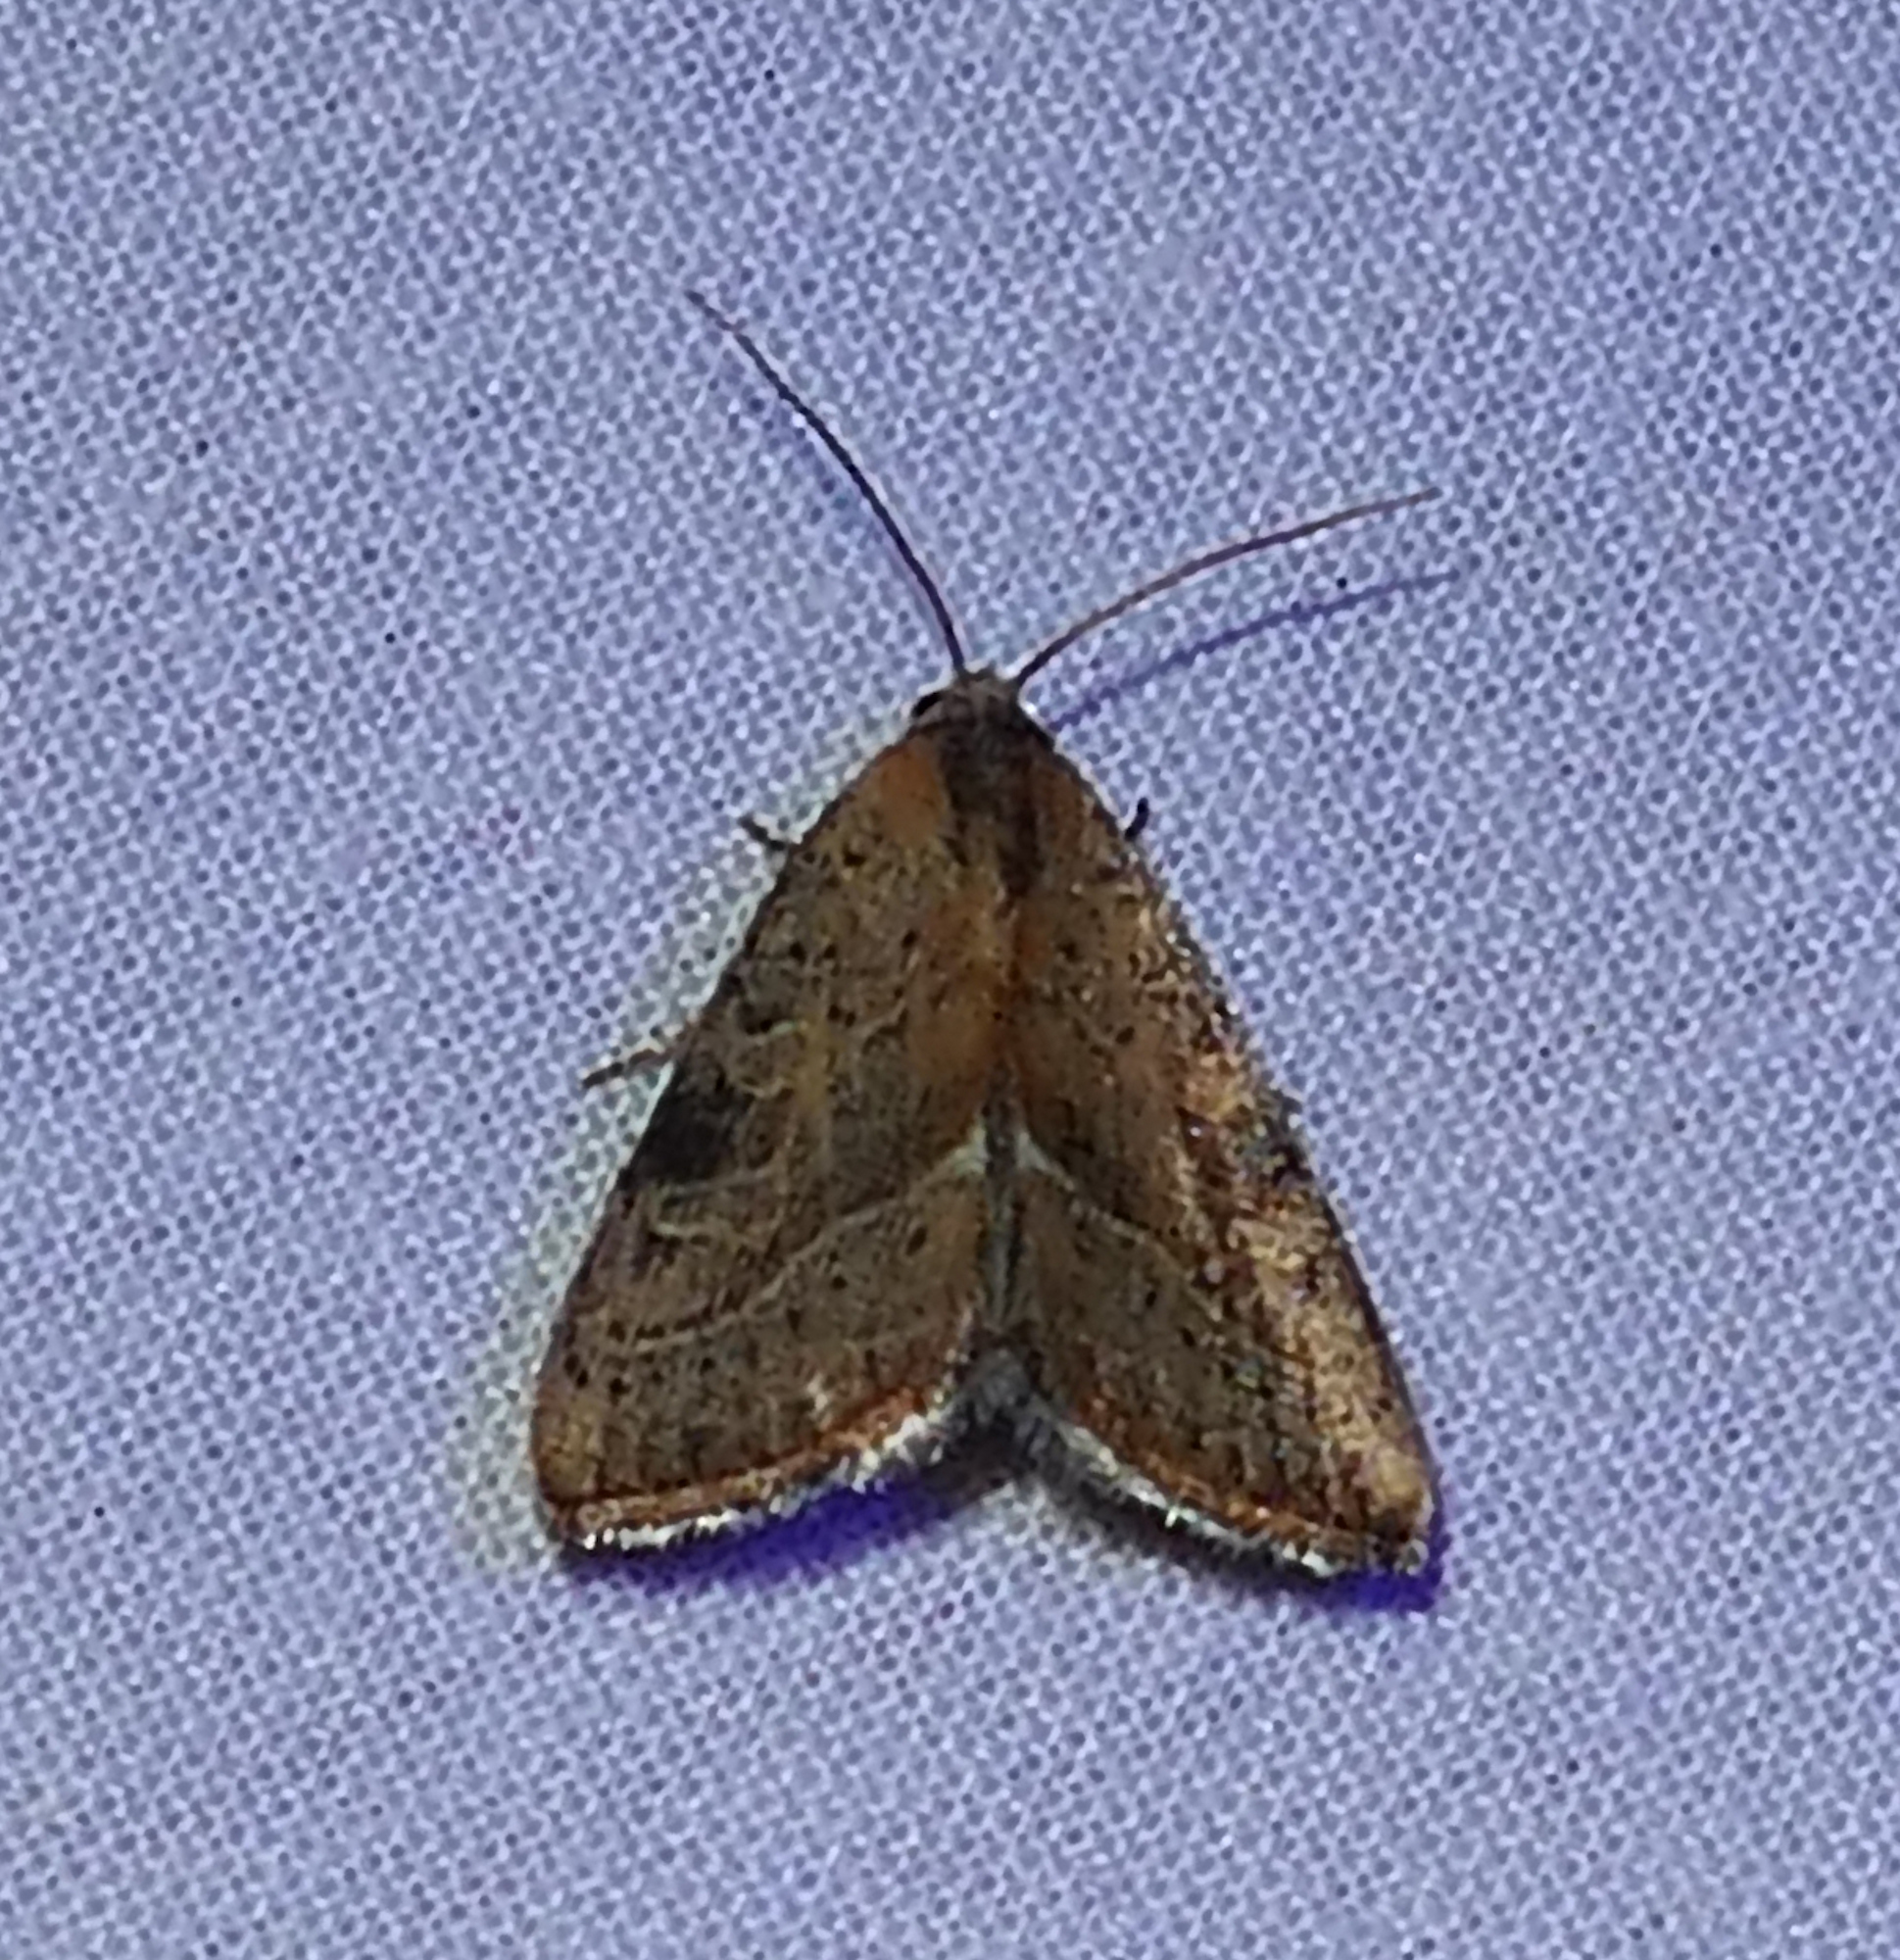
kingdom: Animalia
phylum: Arthropoda
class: Insecta
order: Lepidoptera
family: Noctuidae
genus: Galgula
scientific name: Galgula partita
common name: Wedgeling
